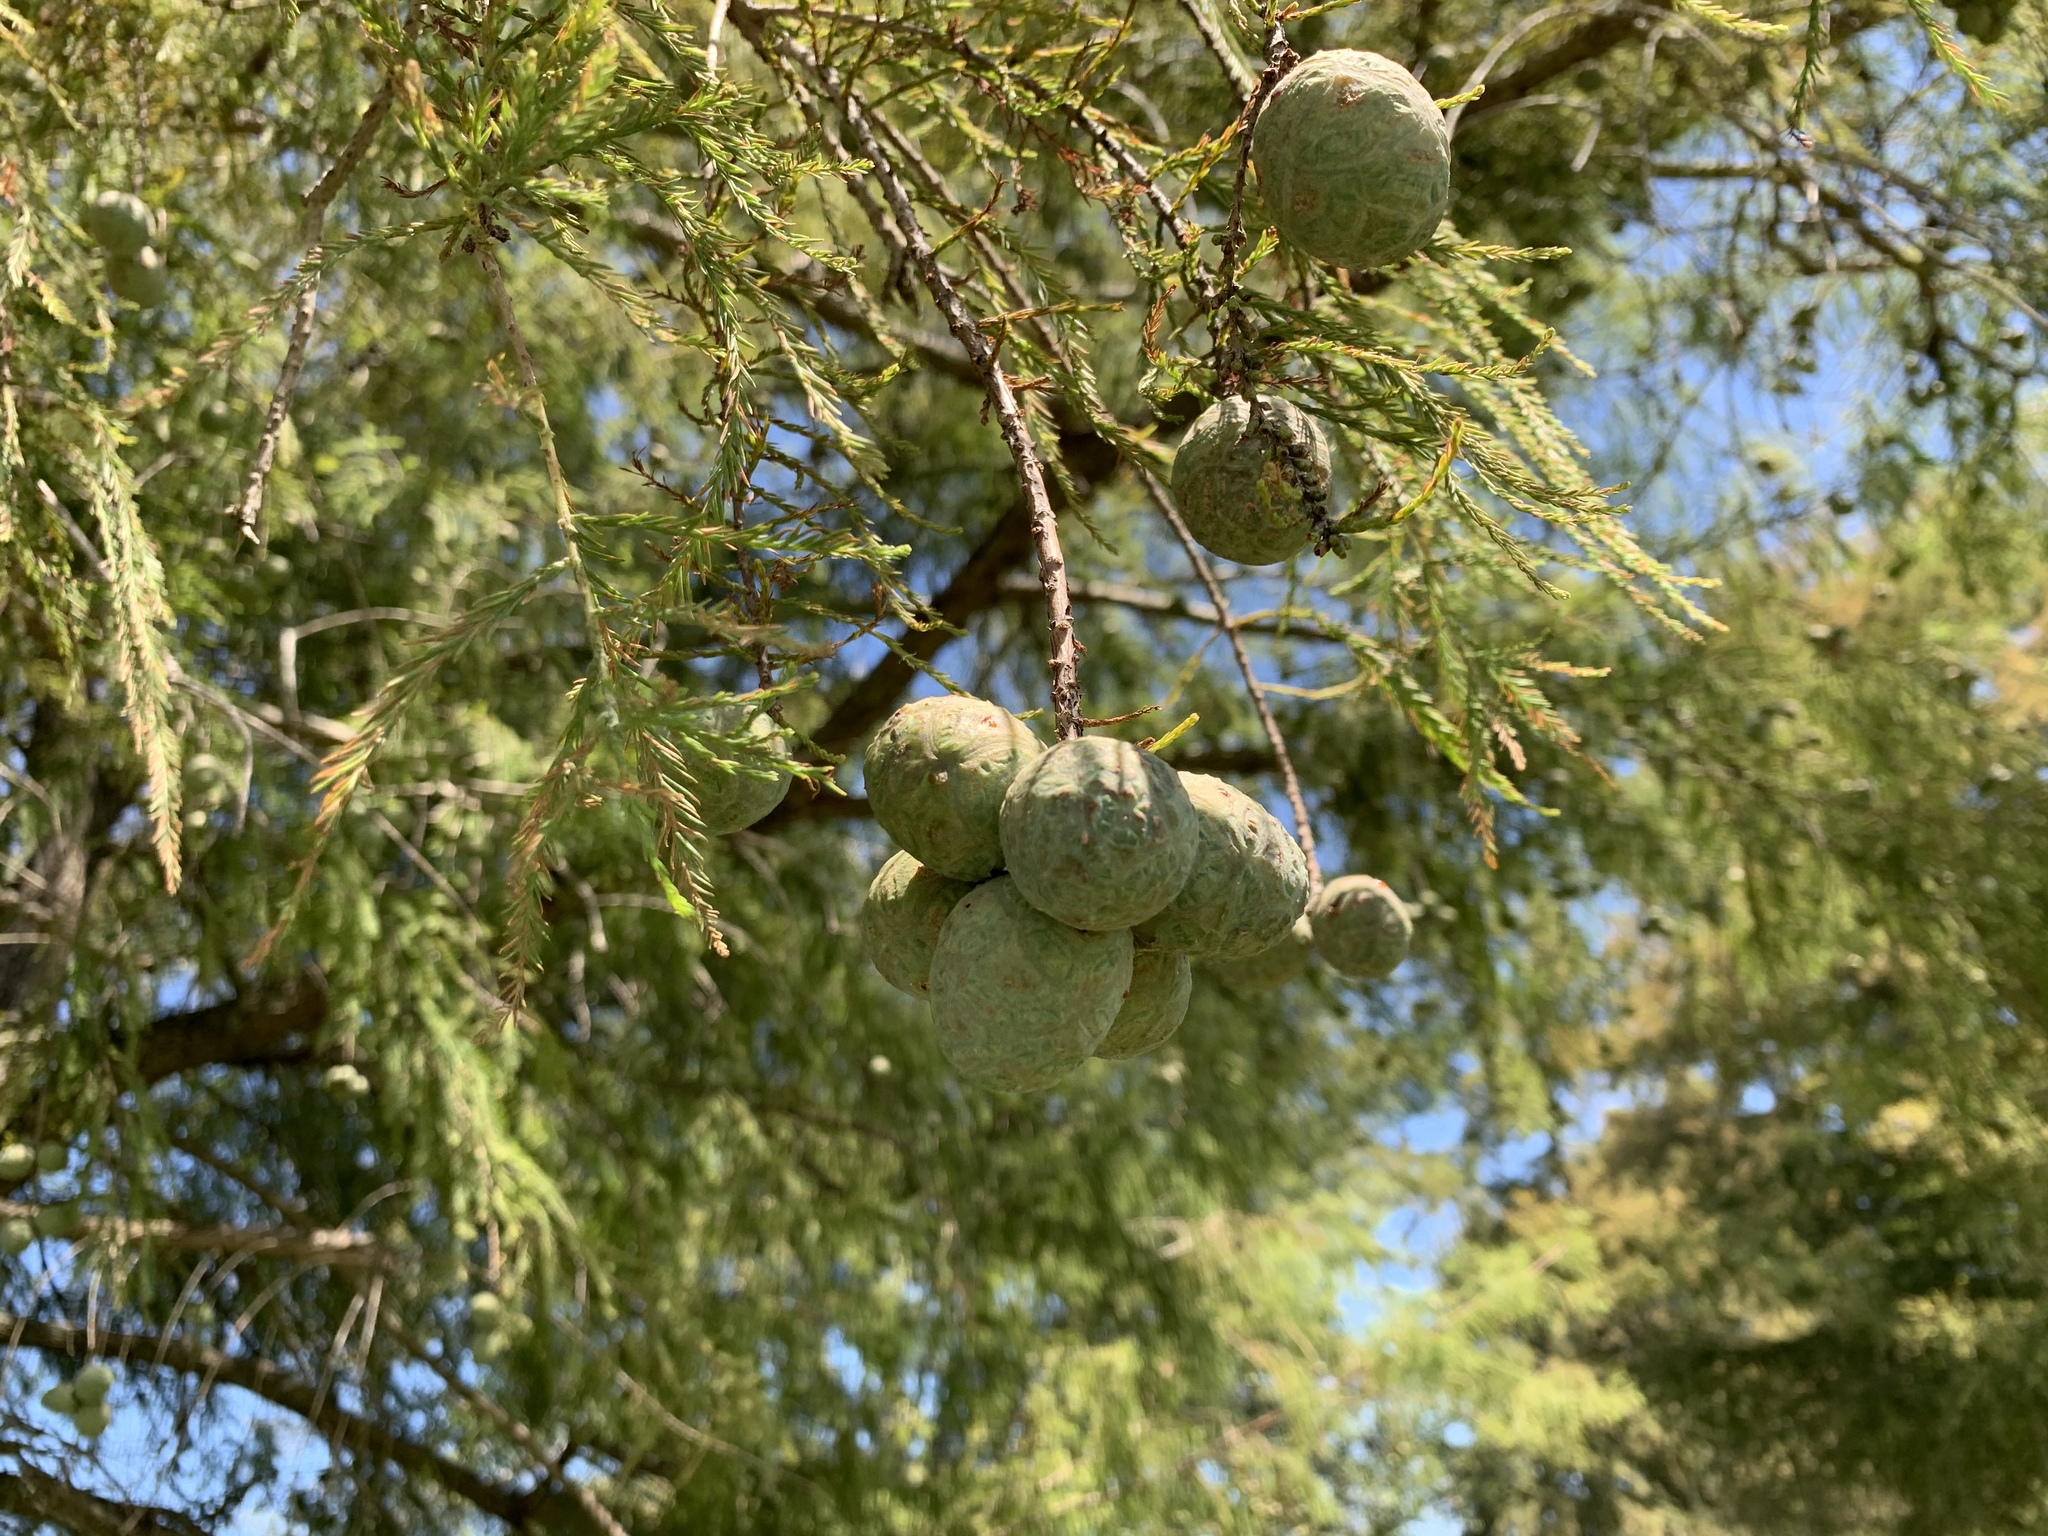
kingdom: Plantae
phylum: Tracheophyta
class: Pinopsida
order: Pinales
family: Cupressaceae
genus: Taxodium
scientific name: Taxodium distichum
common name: Bald cypress
